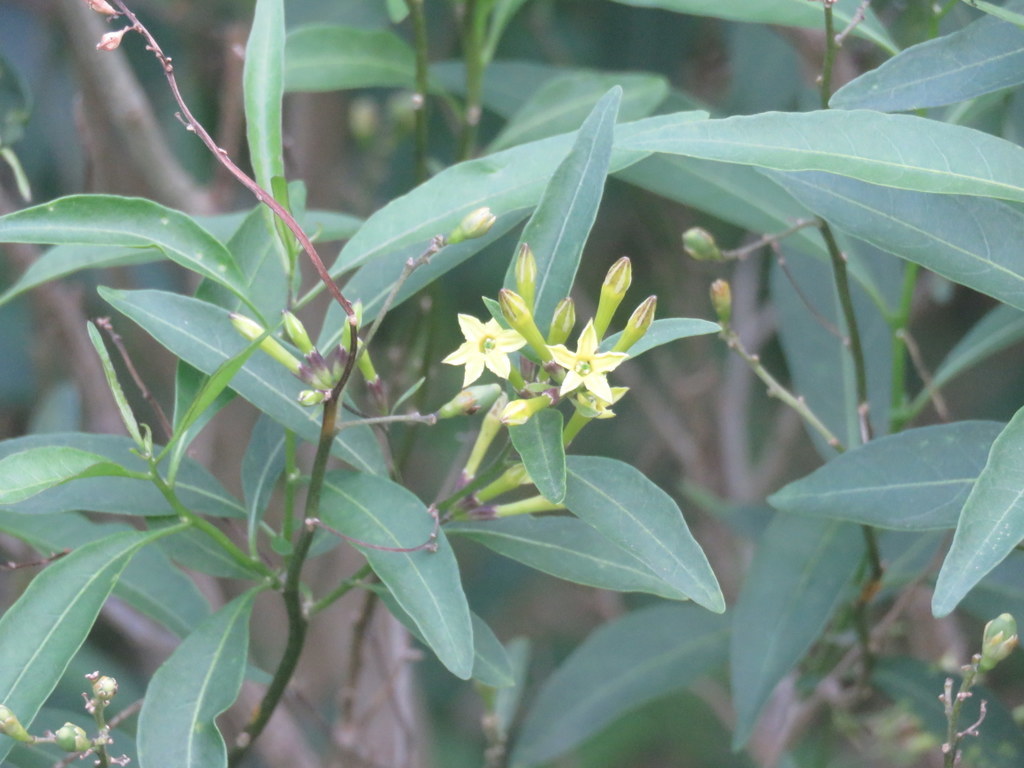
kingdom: Plantae
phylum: Tracheophyta
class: Magnoliopsida
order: Solanales
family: Solanaceae
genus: Cestrum
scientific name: Cestrum euanthes
